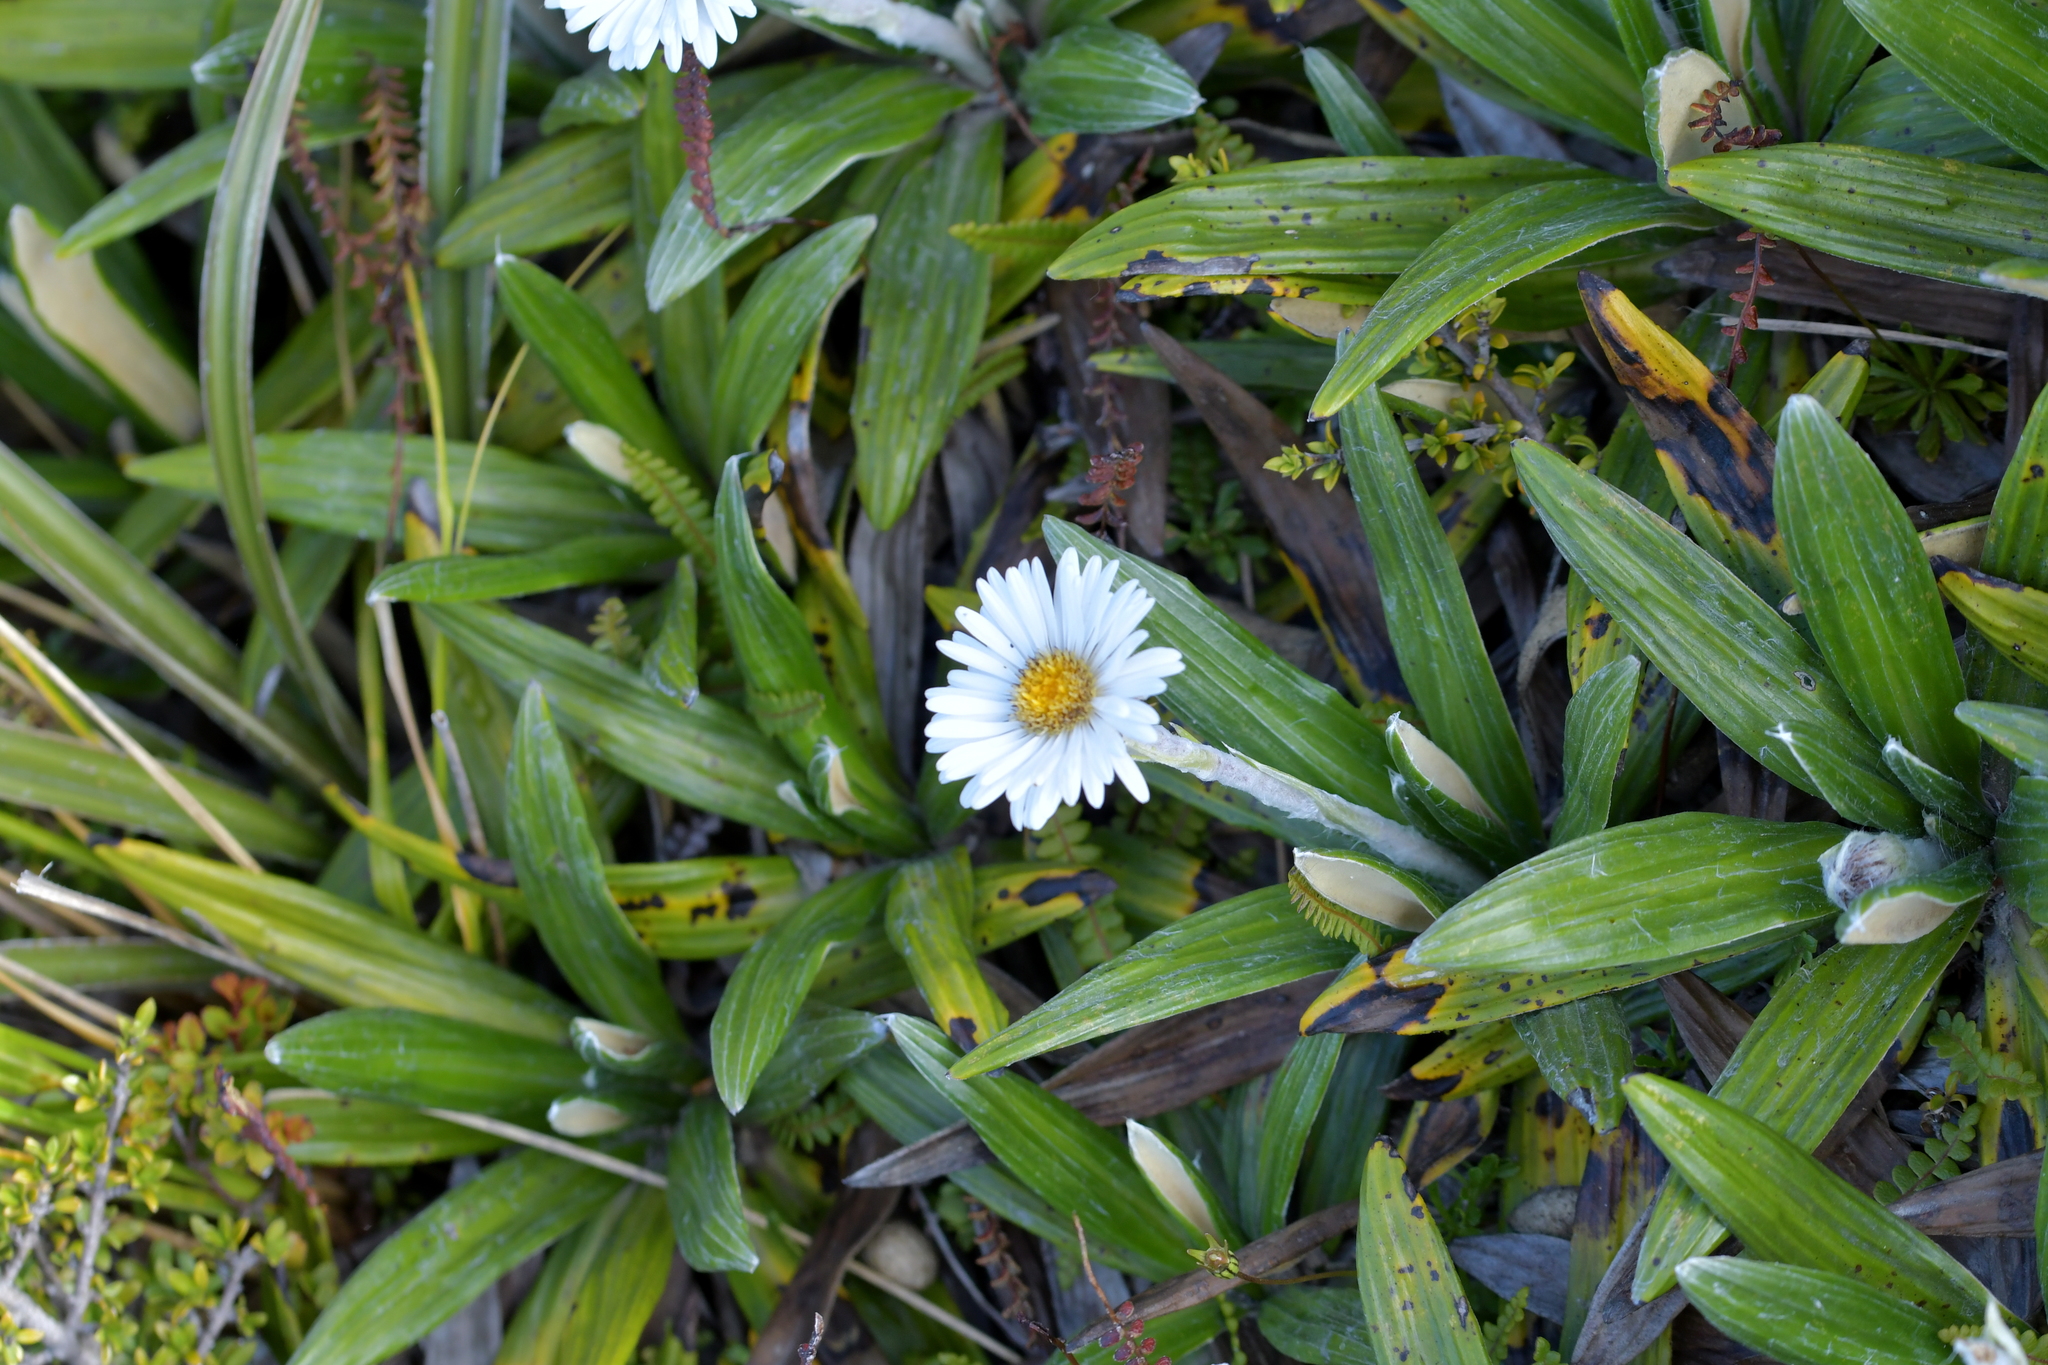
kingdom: Plantae
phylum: Tracheophyta
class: Magnoliopsida
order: Asterales
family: Asteraceae
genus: Celmisia
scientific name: Celmisia spectabilis
